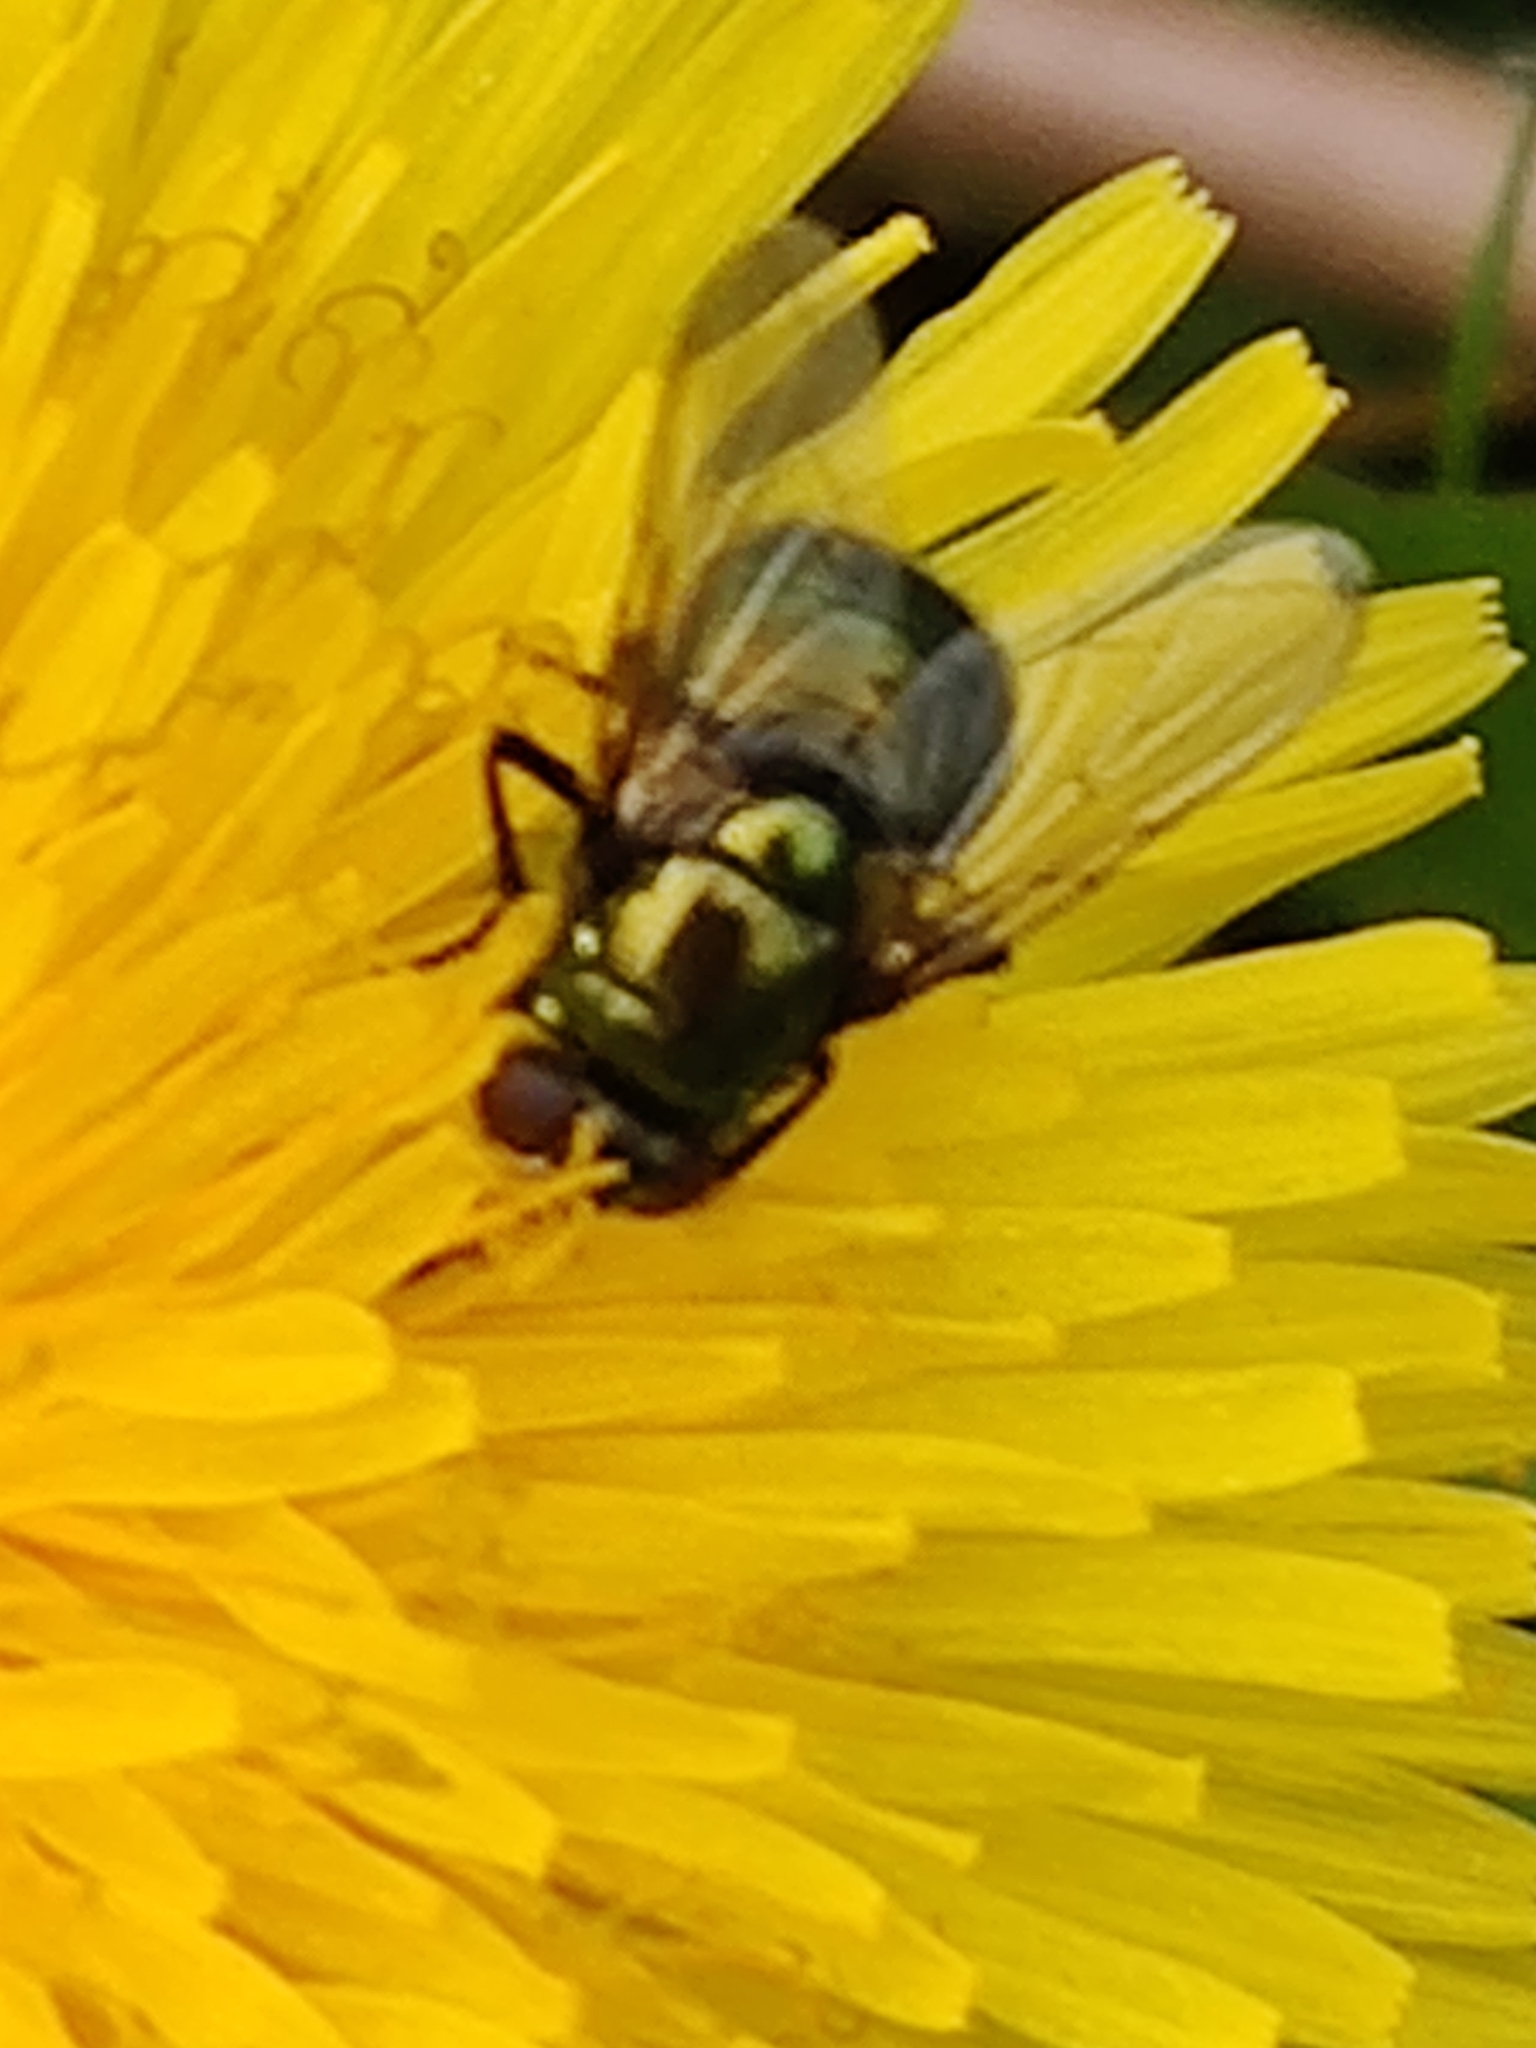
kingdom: Animalia
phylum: Arthropoda
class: Insecta
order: Diptera
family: Muscidae
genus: Neomyia
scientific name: Neomyia
